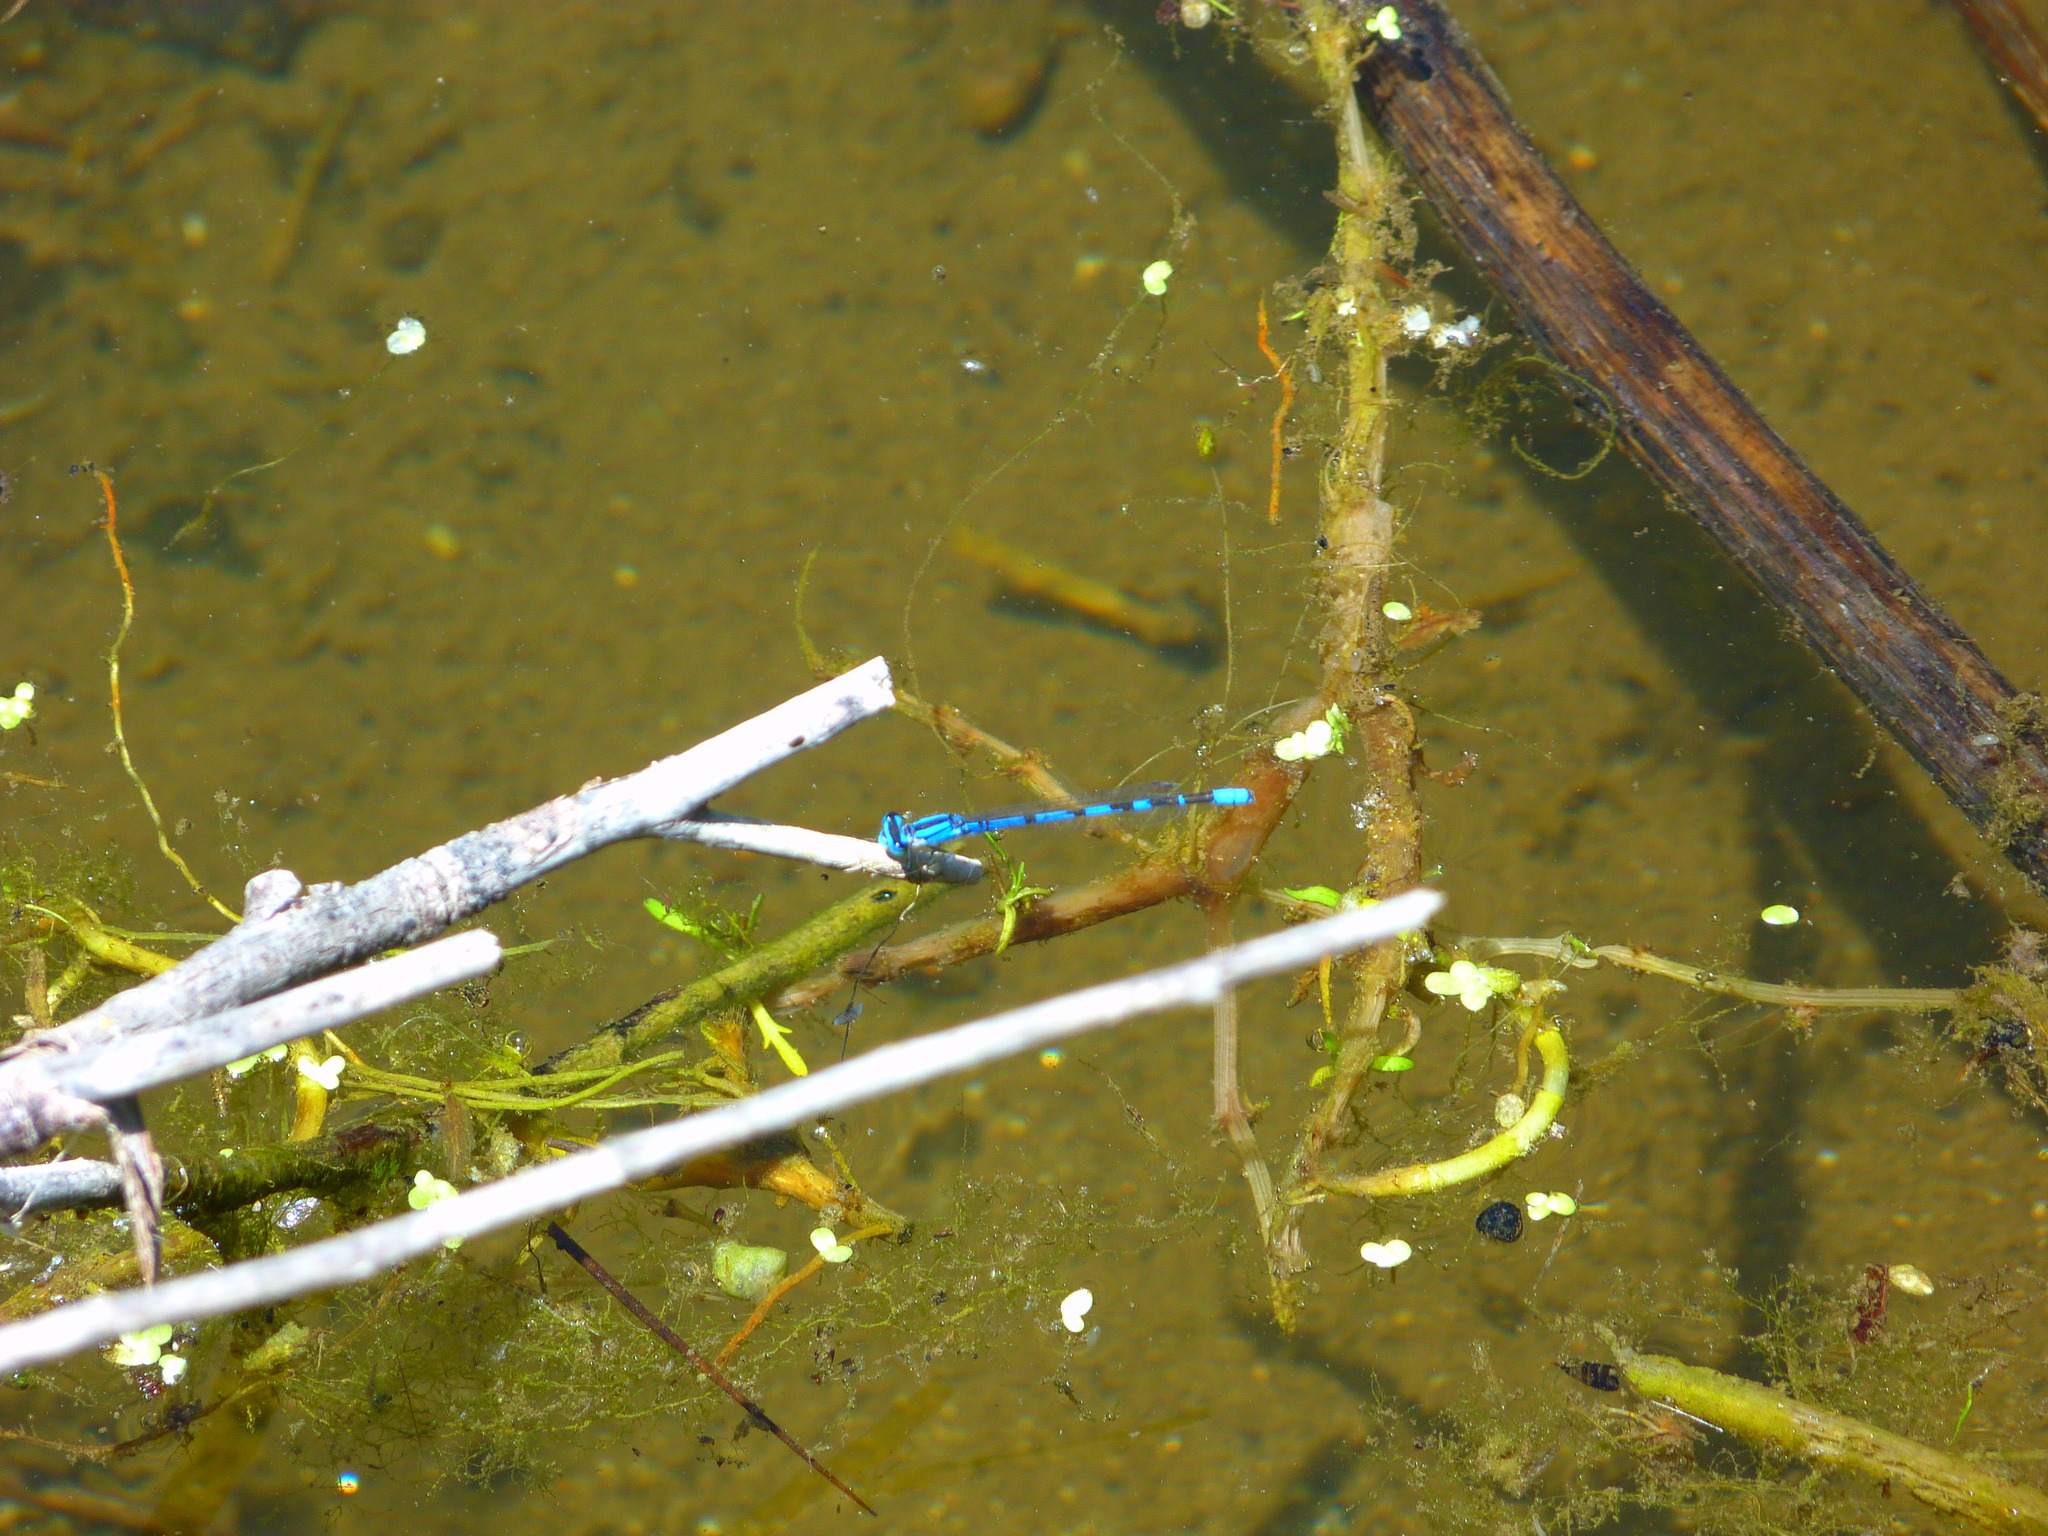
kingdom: Animalia
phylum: Arthropoda
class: Insecta
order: Odonata
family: Coenagrionidae
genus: Enallagma
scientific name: Enallagma
